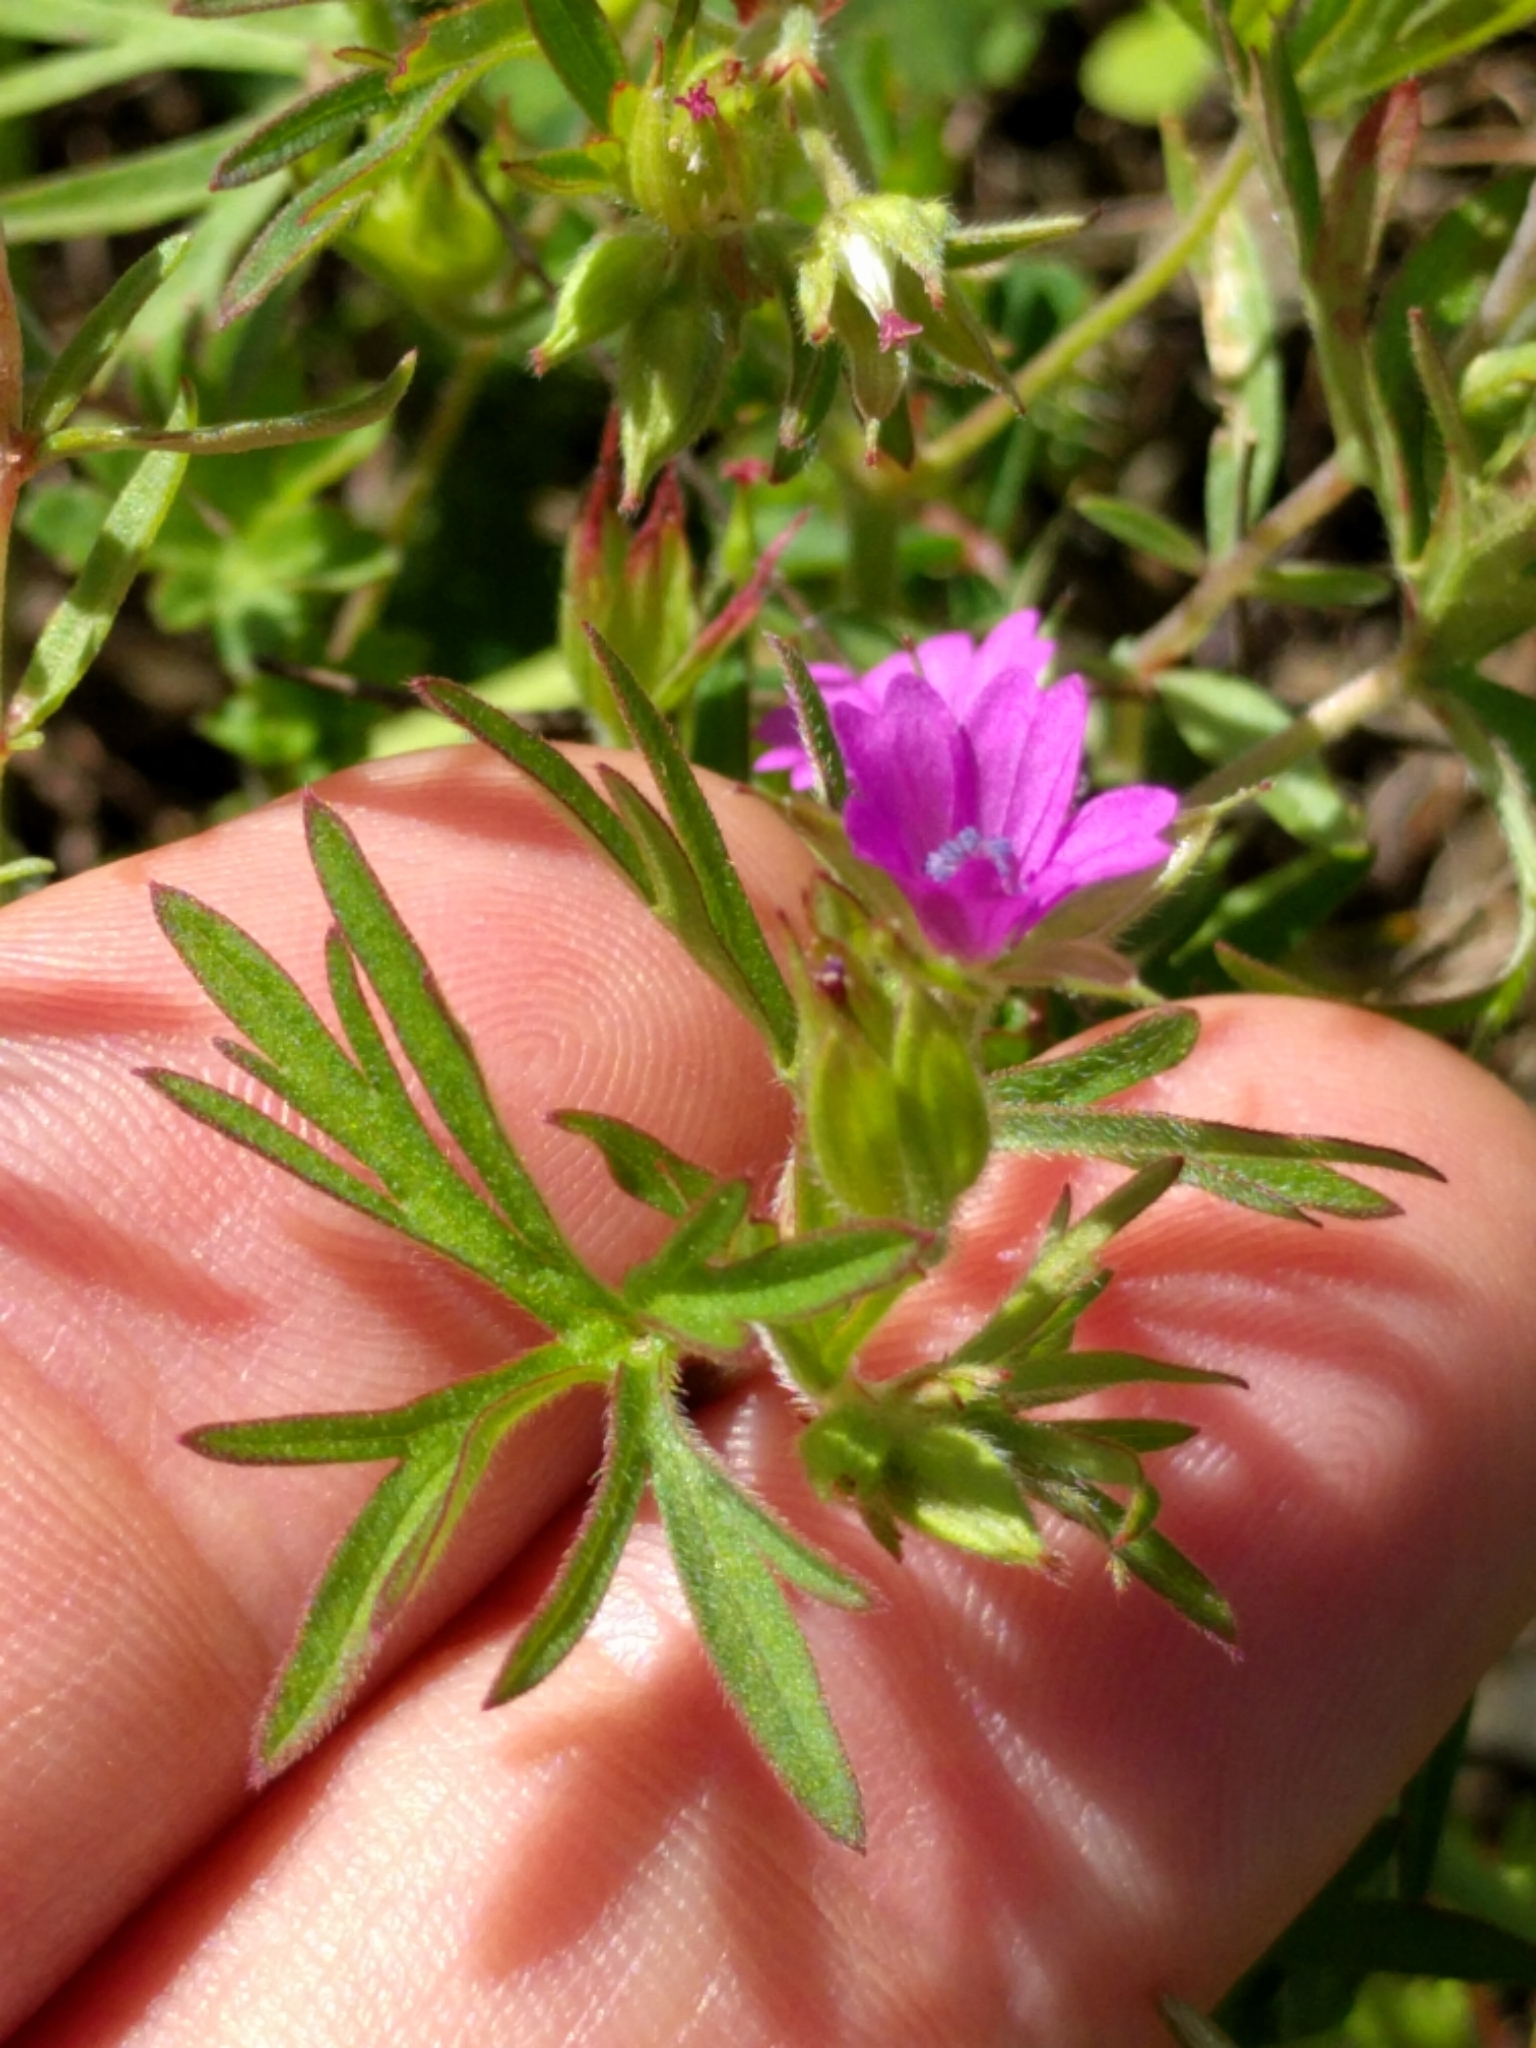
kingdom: Plantae
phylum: Tracheophyta
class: Magnoliopsida
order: Geraniales
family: Geraniaceae
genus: Geranium
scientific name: Geranium dissectum
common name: Cut-leaved crane's-bill
